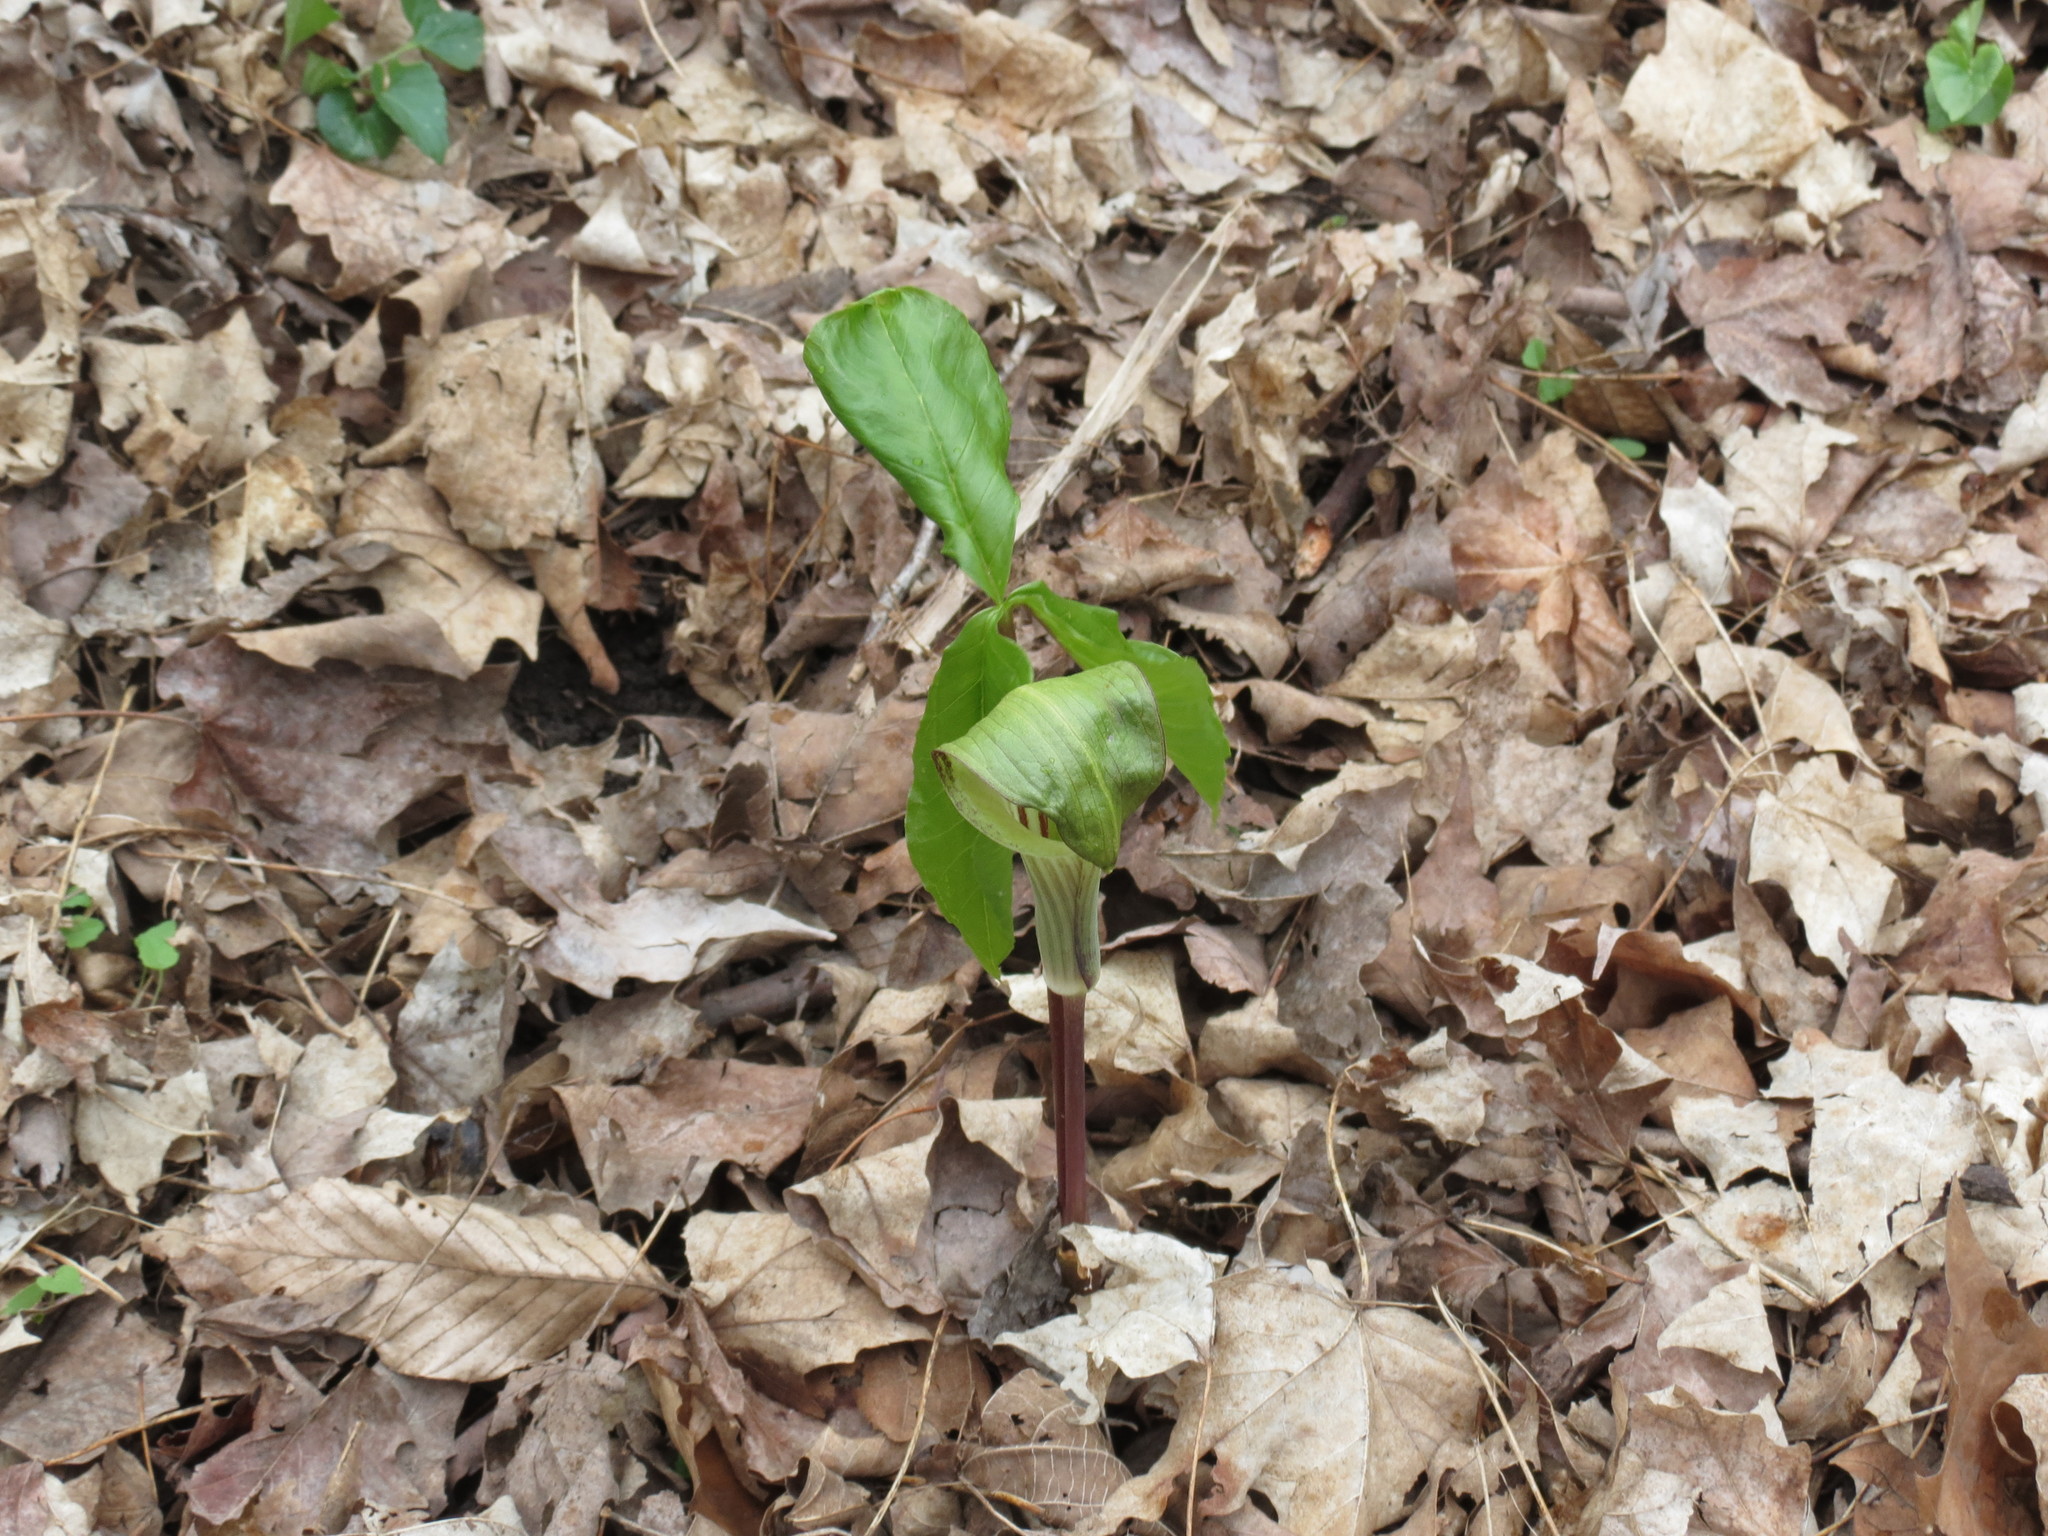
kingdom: Plantae
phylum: Tracheophyta
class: Liliopsida
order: Alismatales
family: Araceae
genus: Arisaema
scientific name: Arisaema triphyllum
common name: Jack-in-the-pulpit
